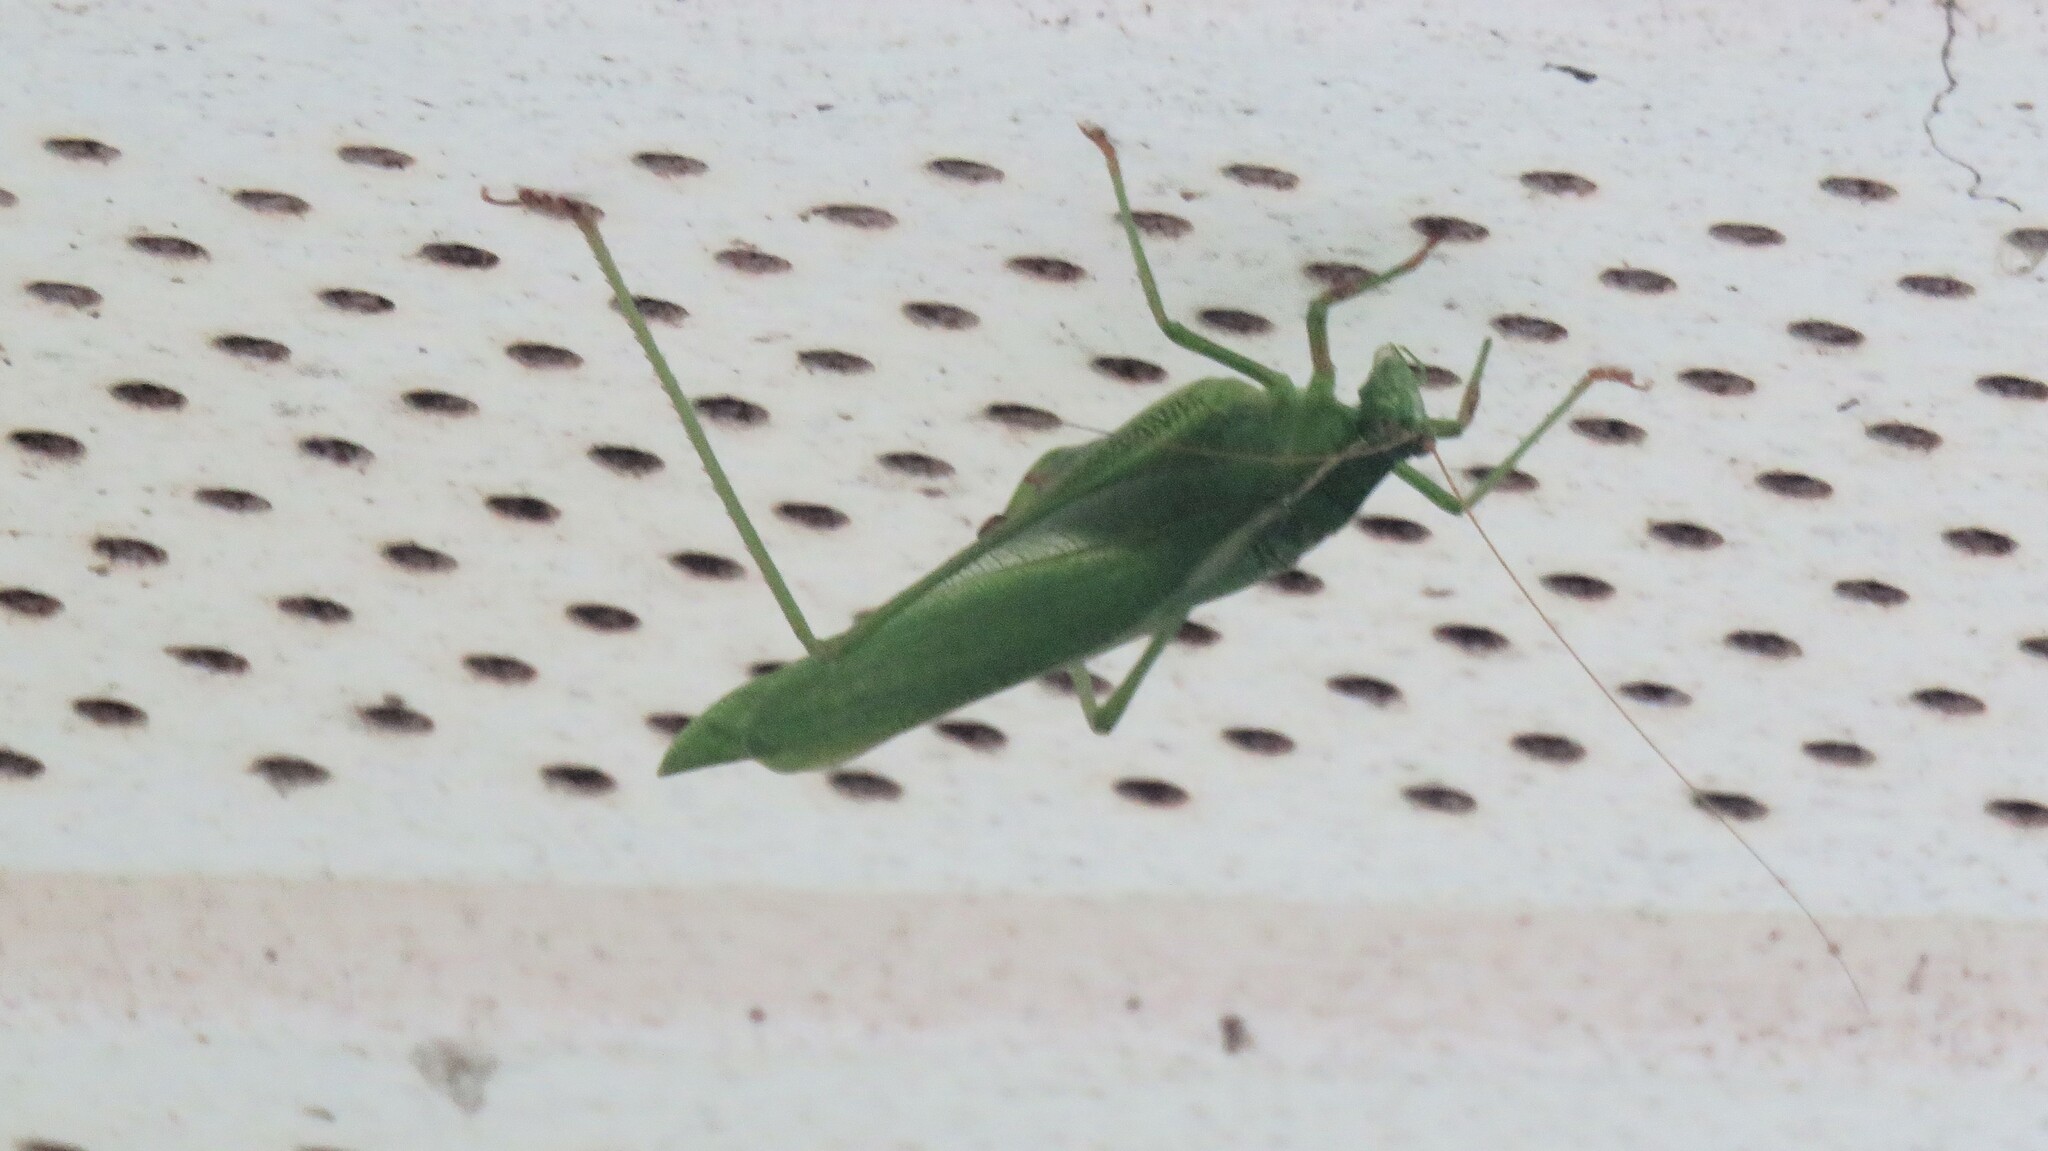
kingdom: Animalia
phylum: Arthropoda
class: Insecta
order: Orthoptera
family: Tettigoniidae
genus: Scudderia
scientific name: Scudderia septentrionalis
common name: Northern bush-katydid
